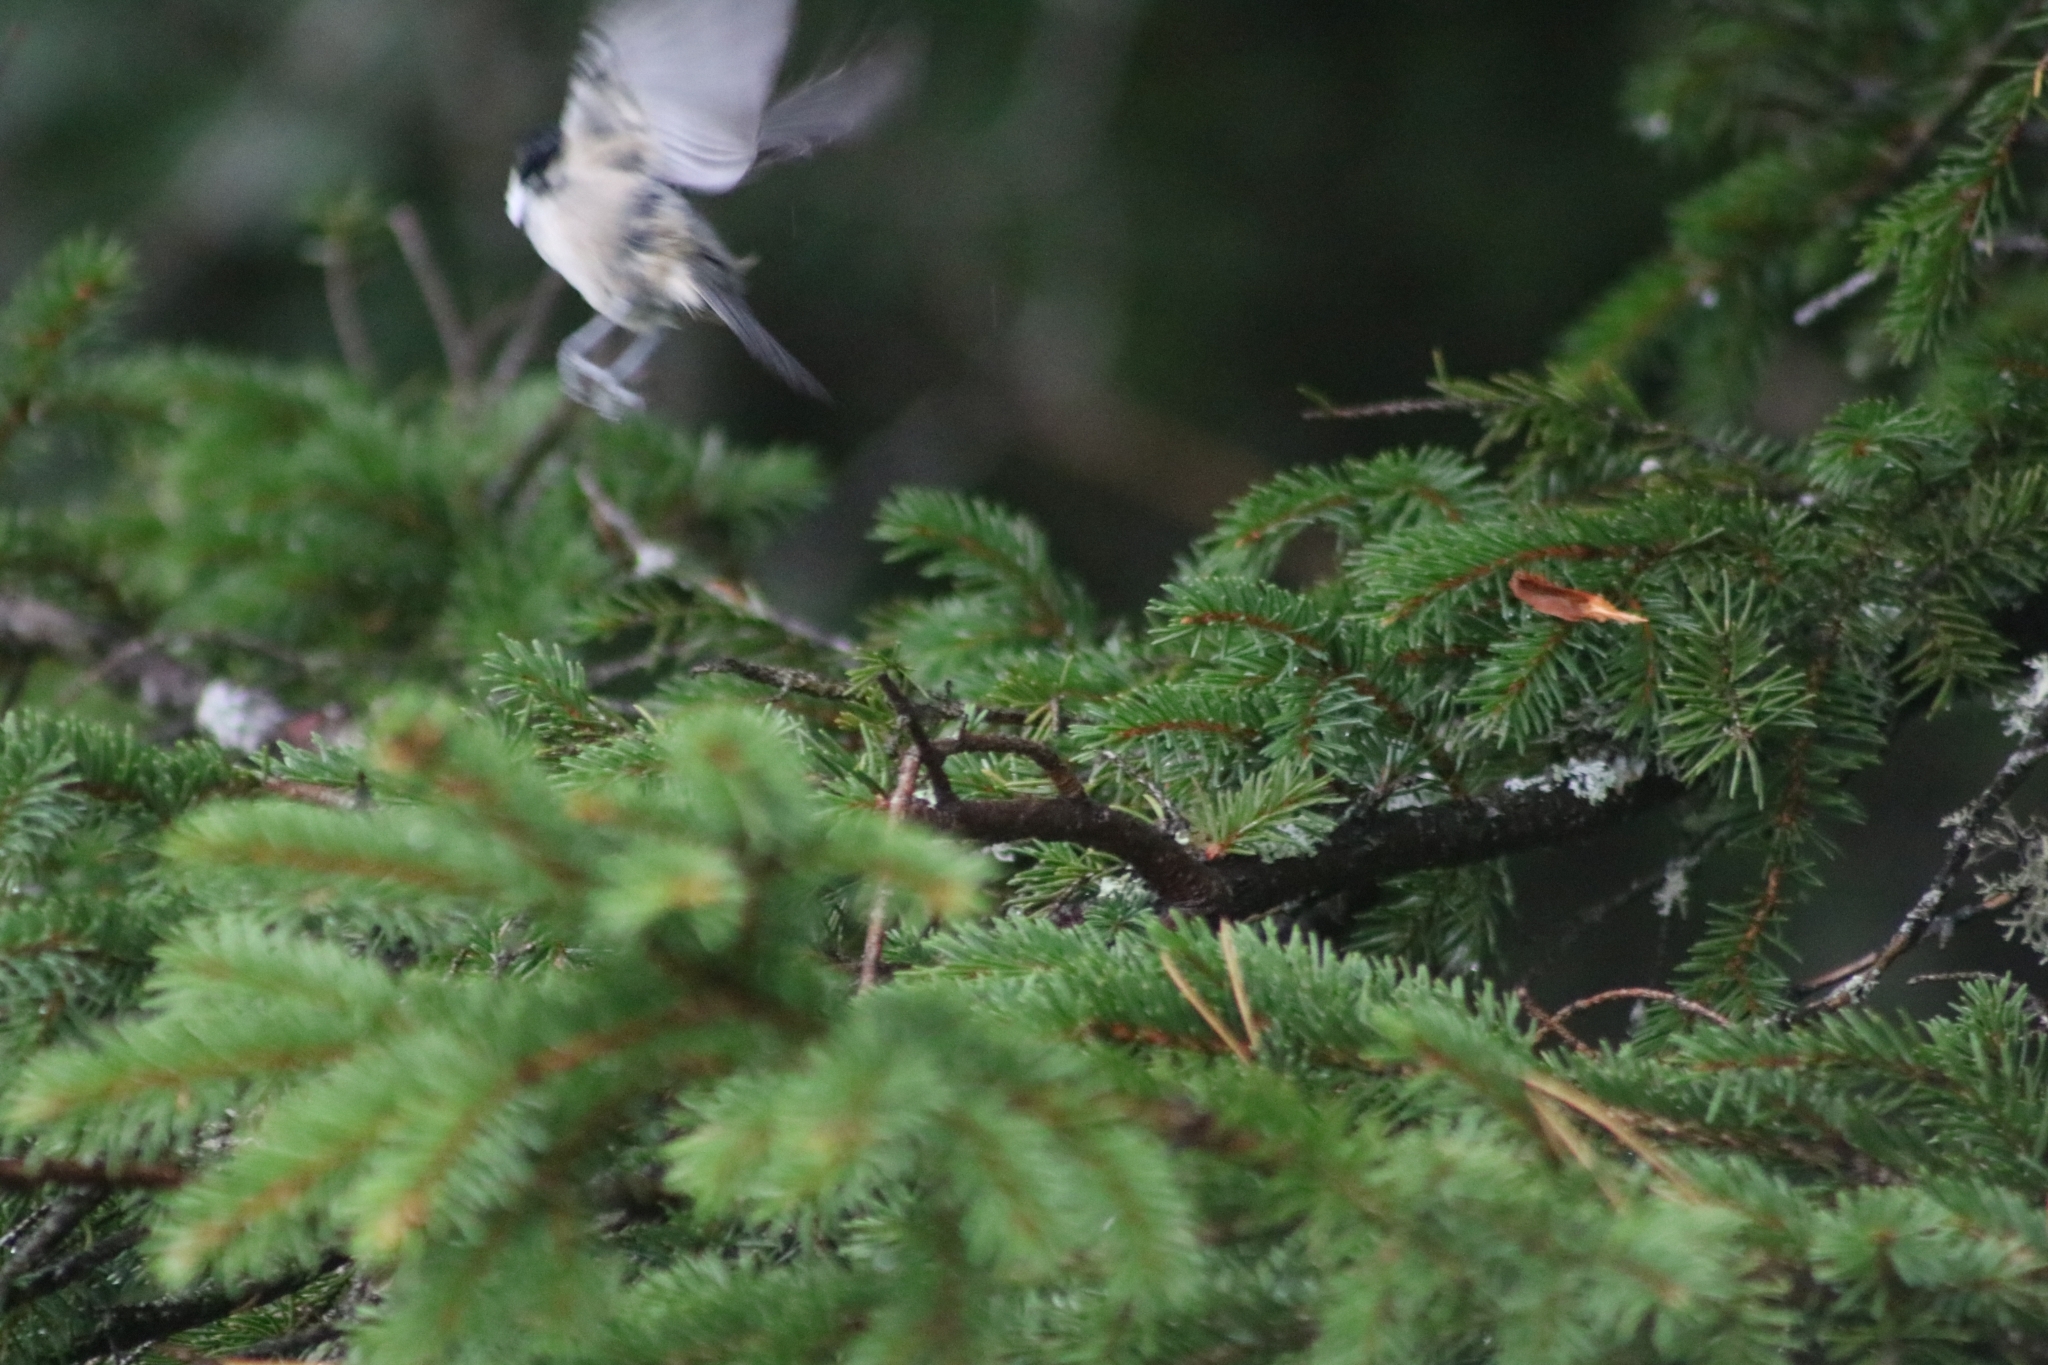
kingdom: Animalia
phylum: Chordata
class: Aves
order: Passeriformes
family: Paridae
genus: Periparus
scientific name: Periparus ater
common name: Coal tit
